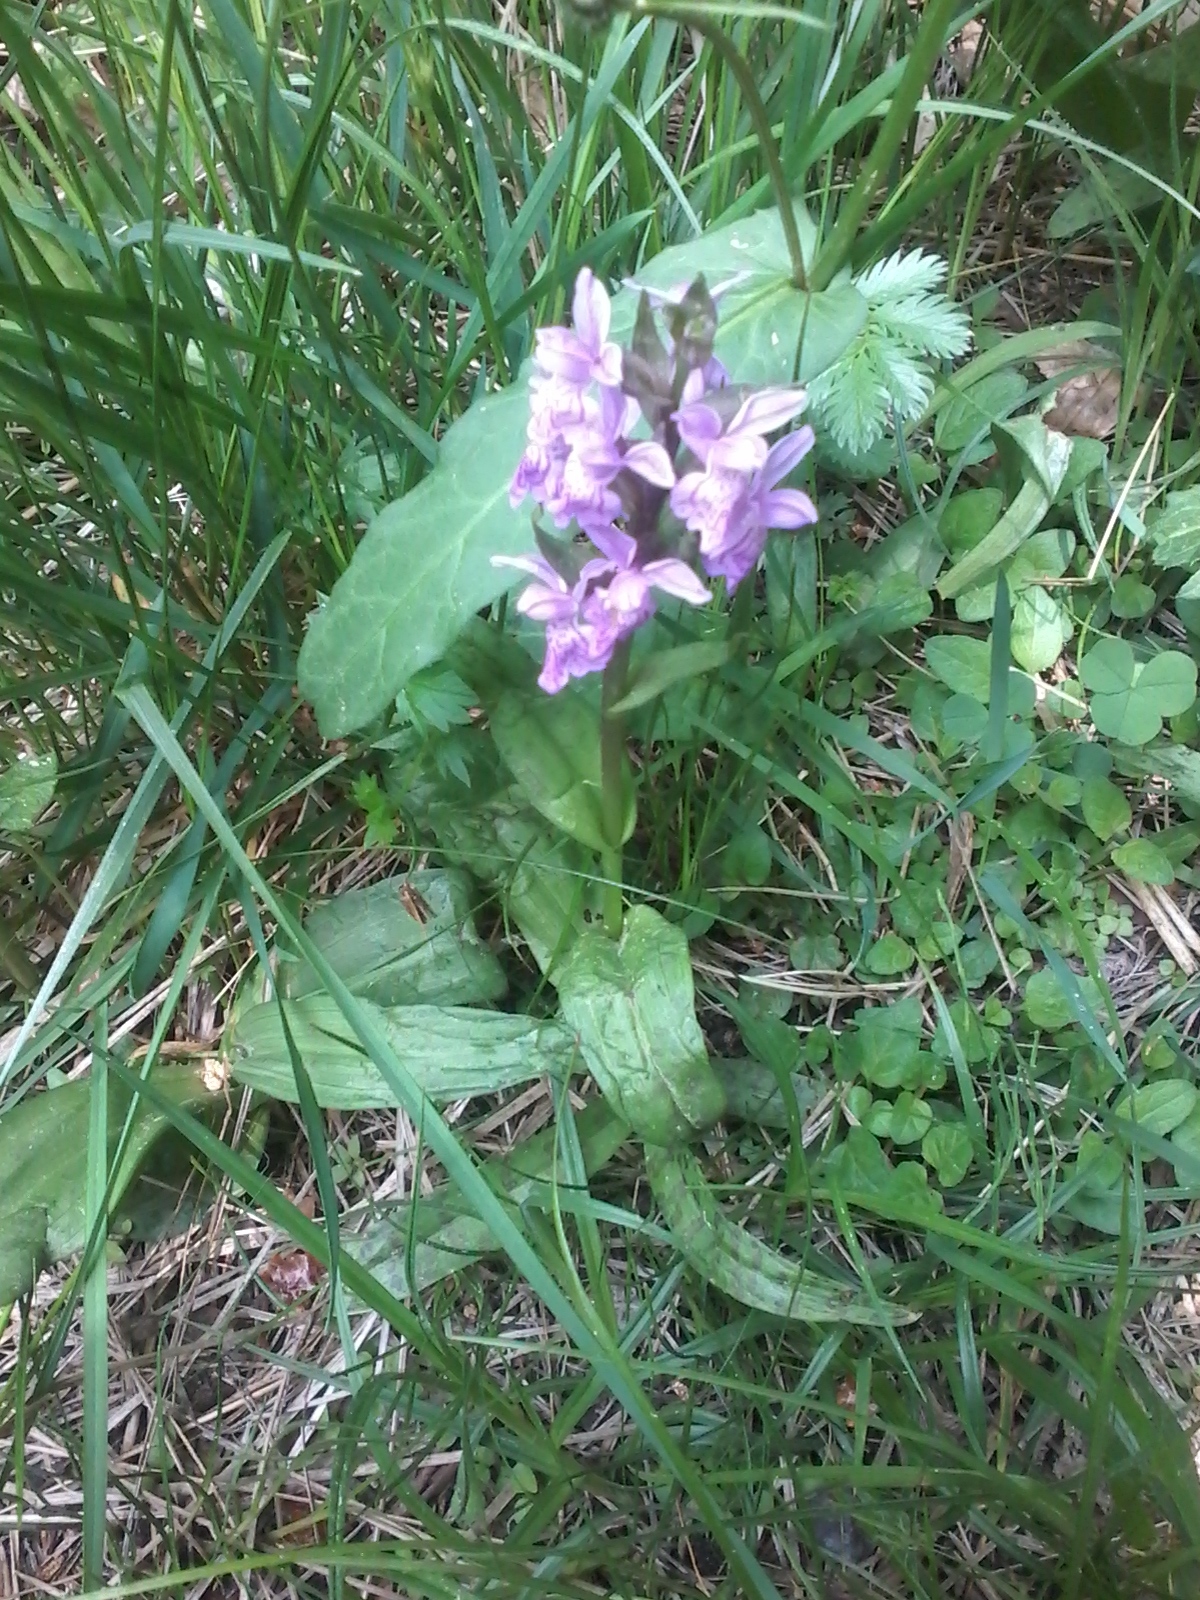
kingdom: Plantae
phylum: Tracheophyta
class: Liliopsida
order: Asparagales
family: Orchidaceae
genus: Dactylorhiza
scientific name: Dactylorhiza majalis
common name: Marsh orchid
